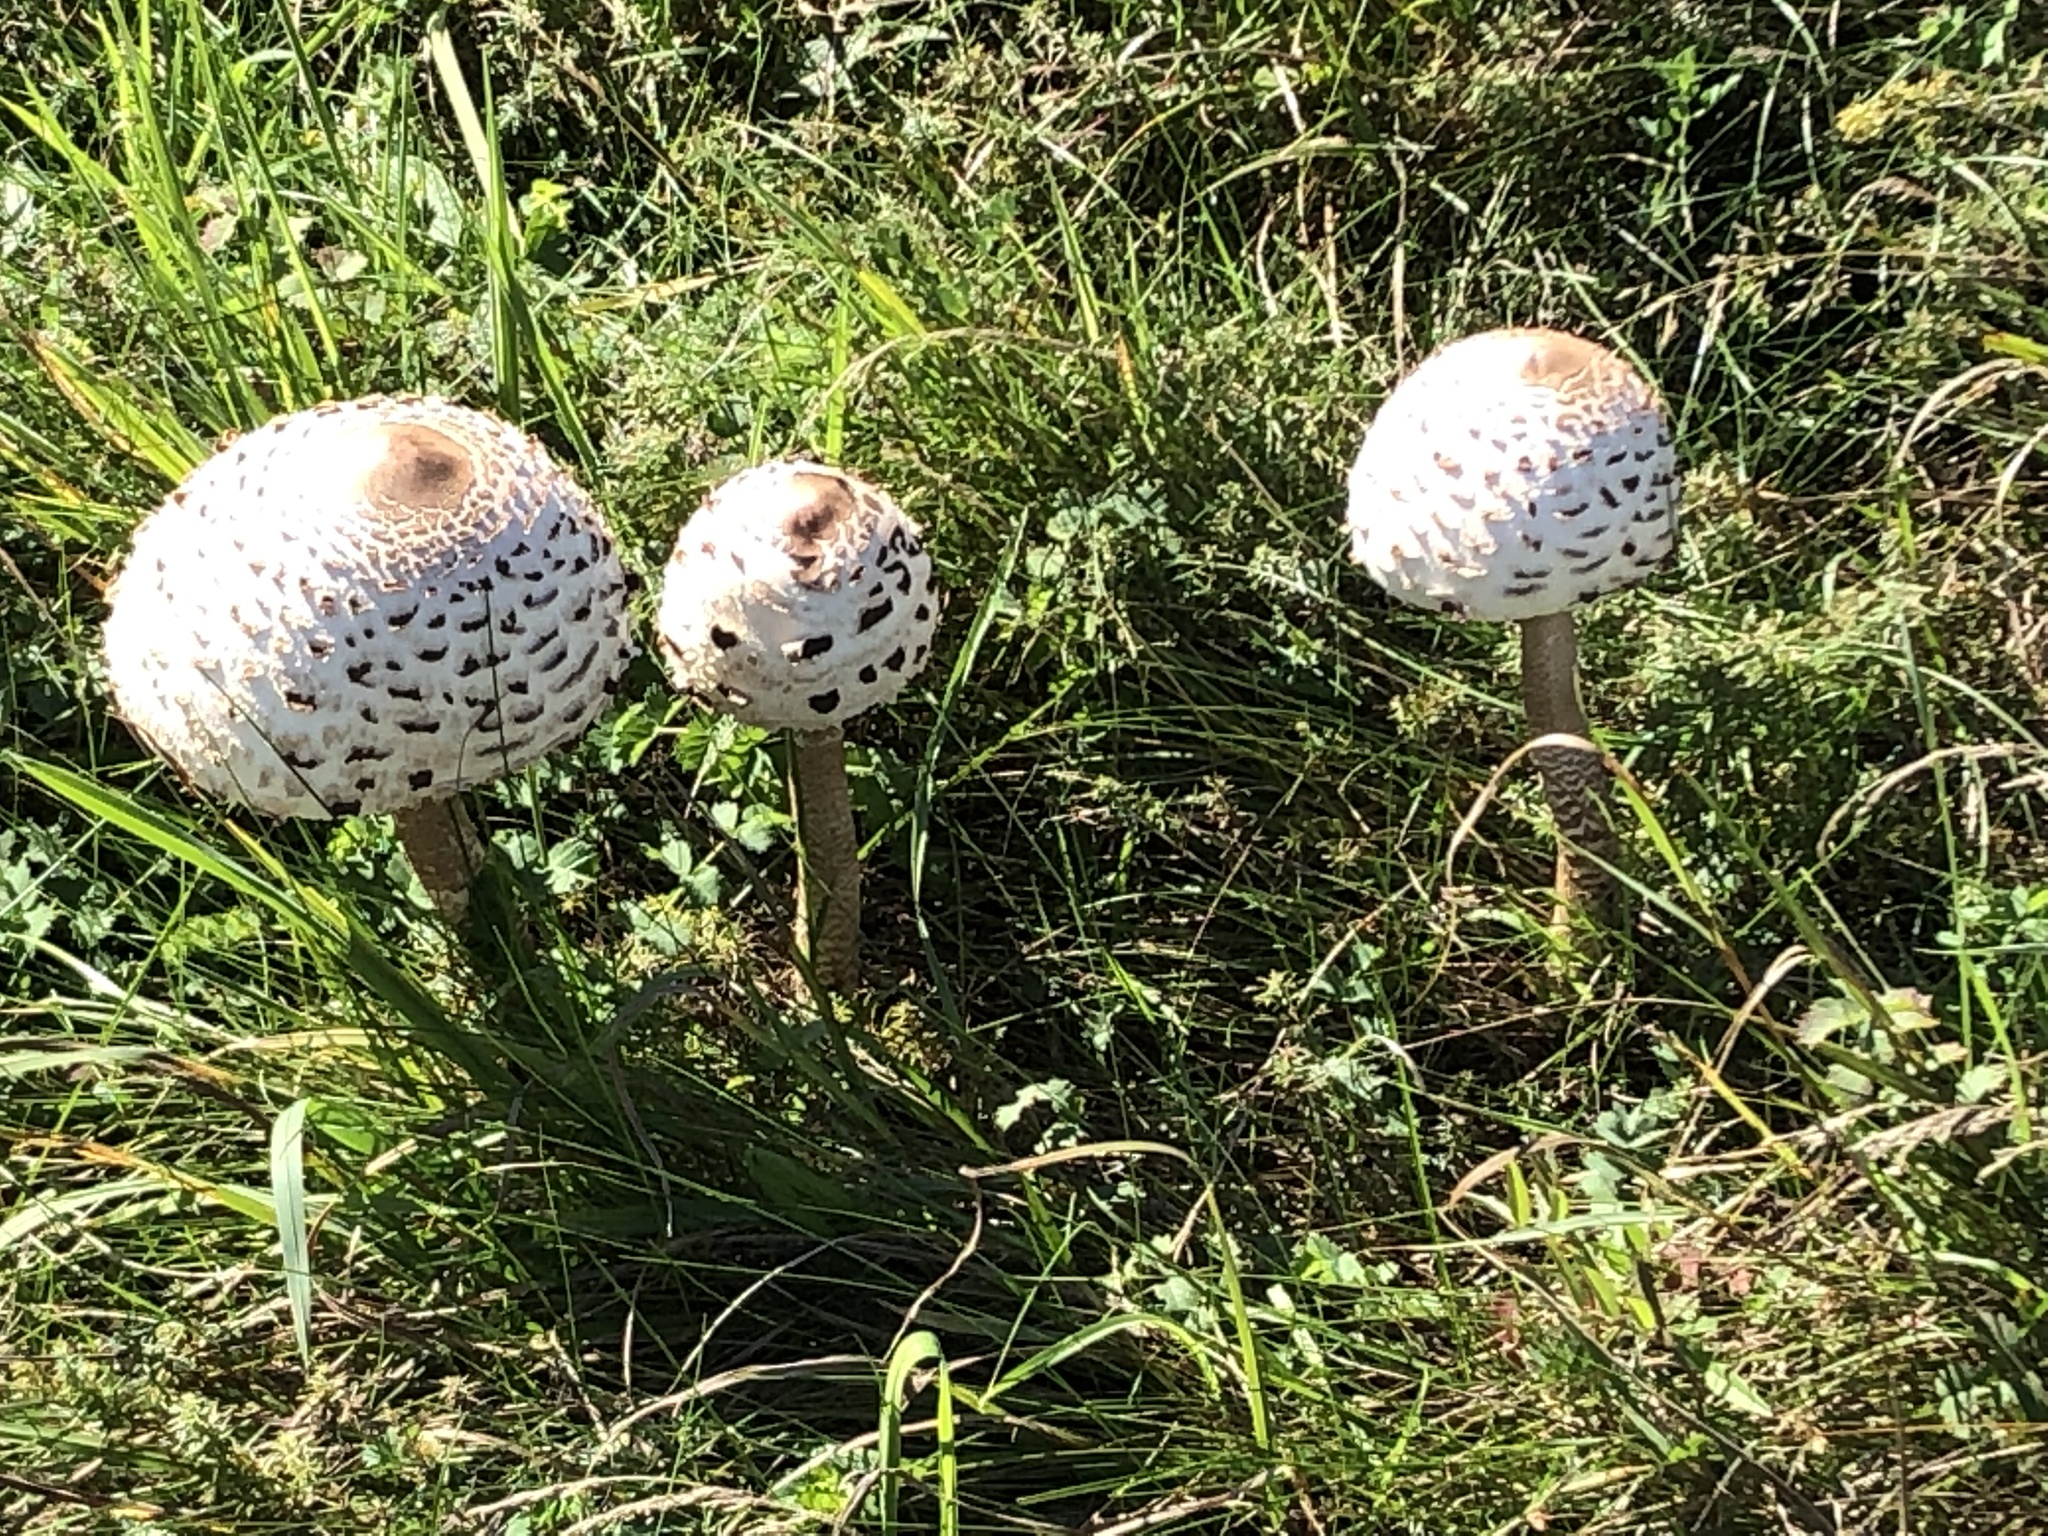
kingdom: Fungi
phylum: Basidiomycota
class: Agaricomycetes
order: Agaricales
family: Agaricaceae
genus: Macrolepiota
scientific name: Macrolepiota procera
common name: Parasol
